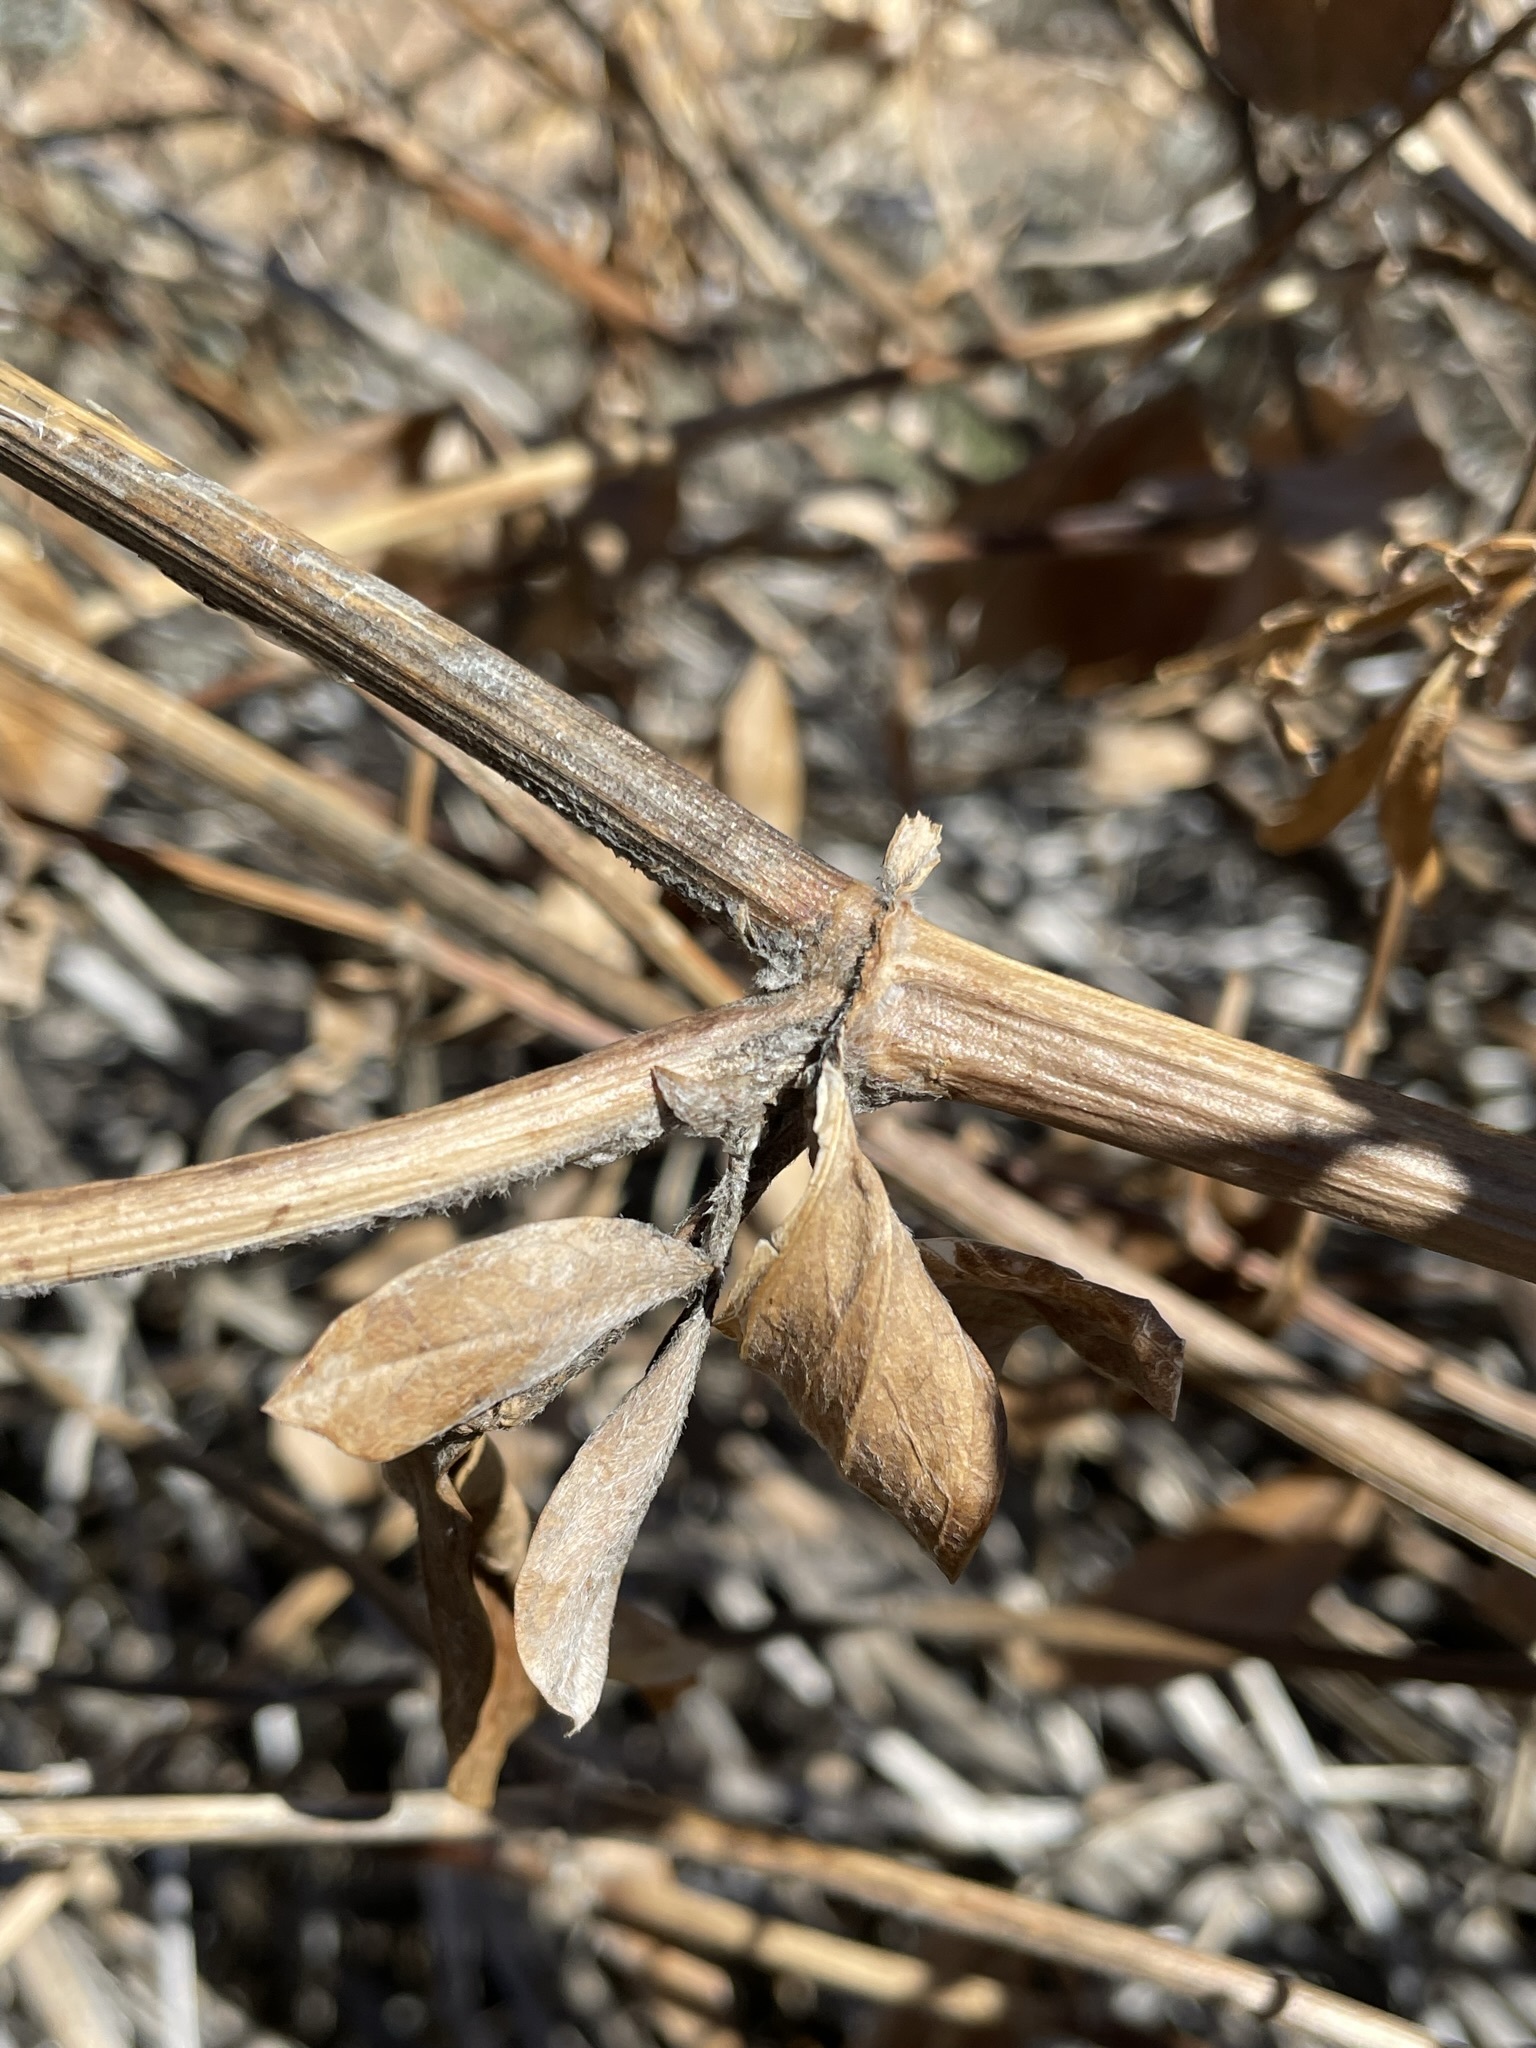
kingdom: Plantae
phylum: Tracheophyta
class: Magnoliopsida
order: Fabales
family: Fabaceae
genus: Thermopsis
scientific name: Thermopsis macrophylla
